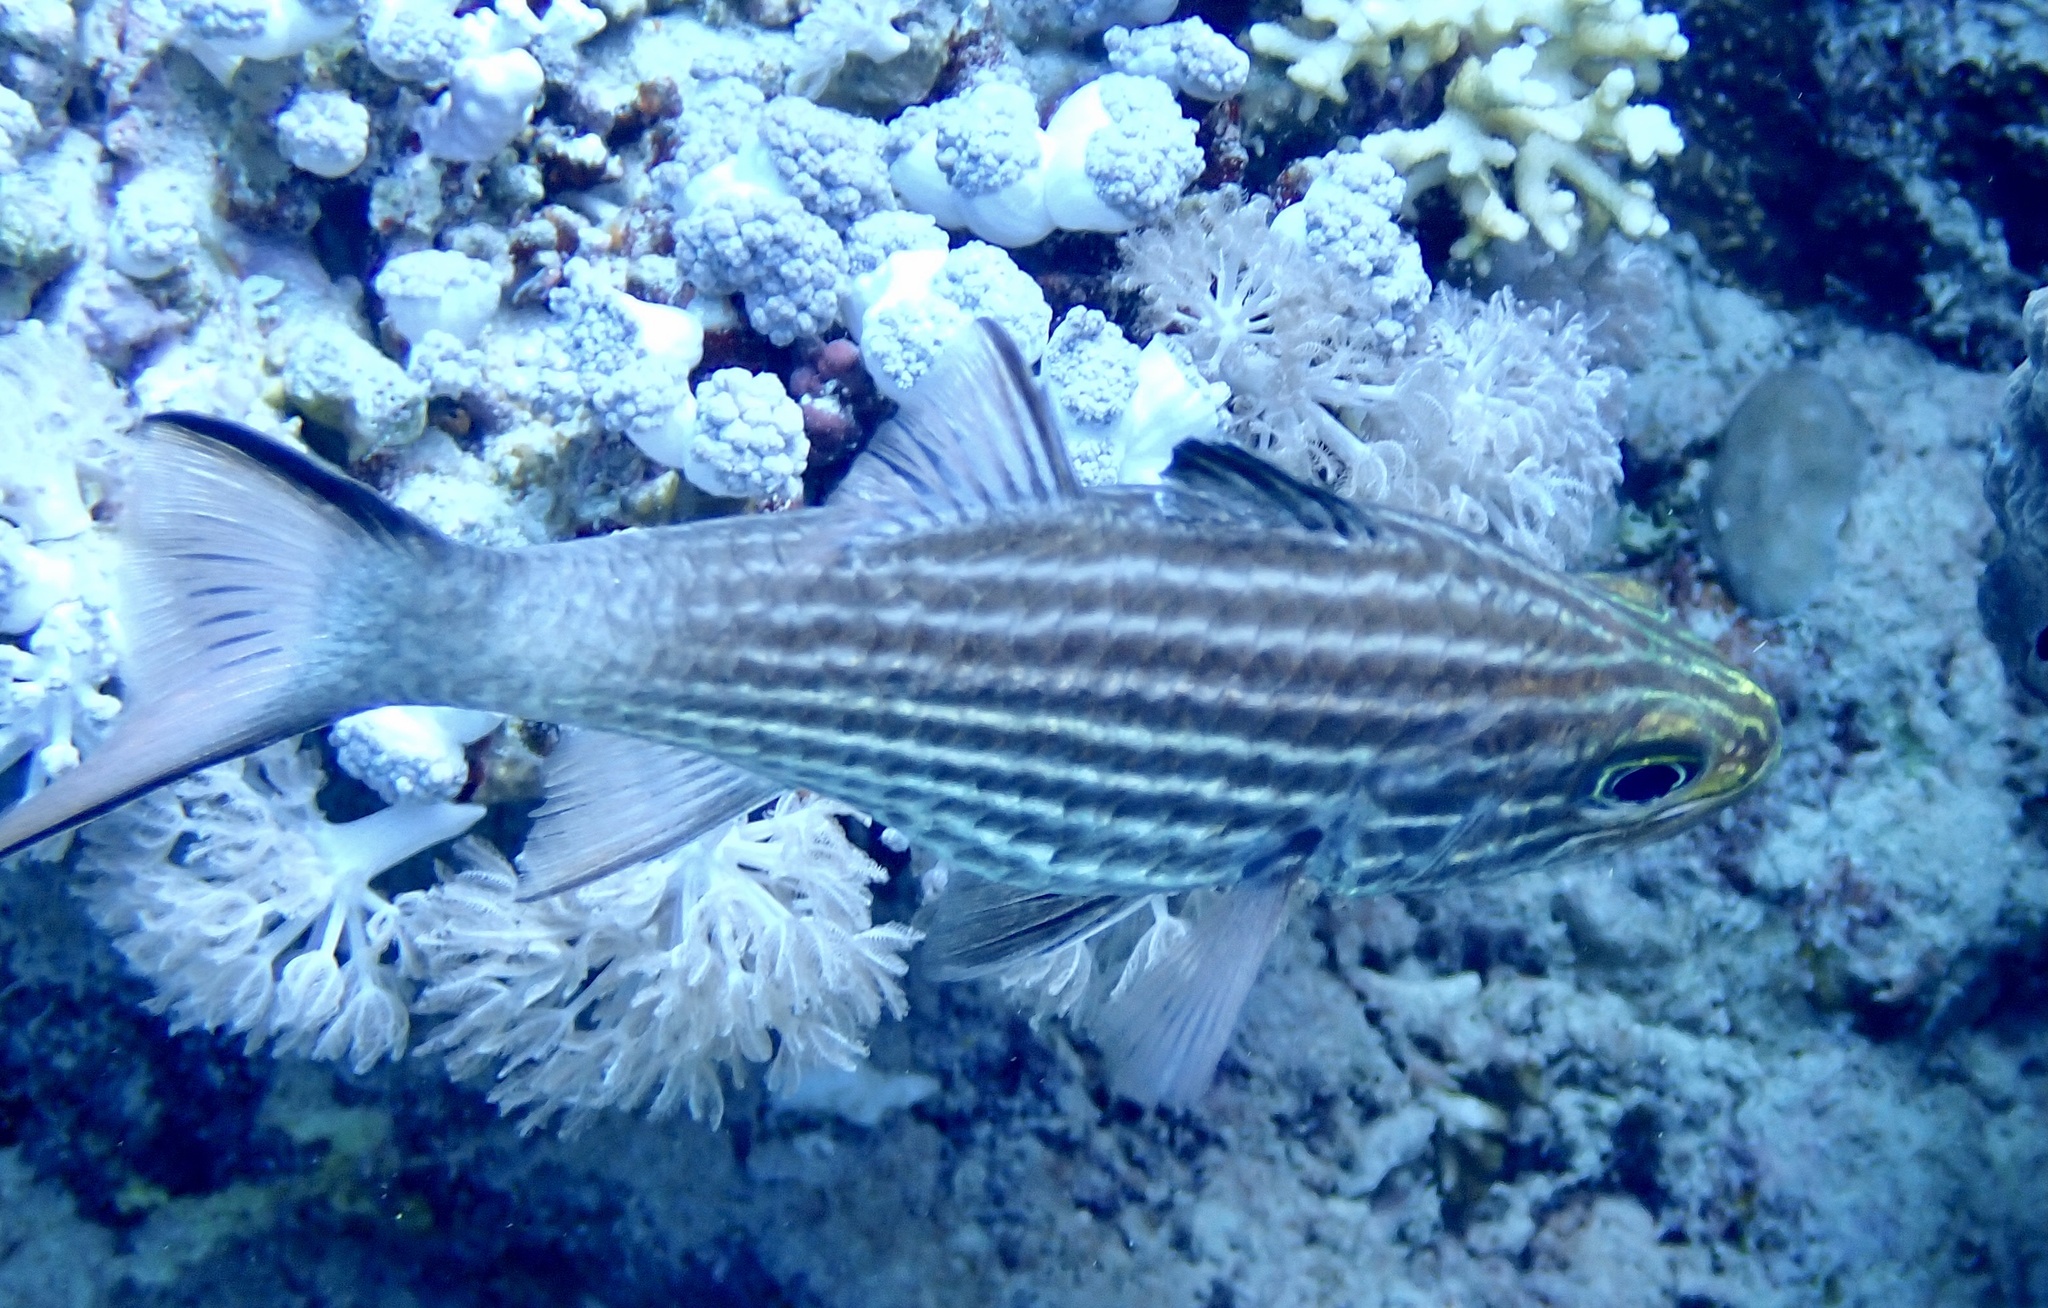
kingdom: Animalia
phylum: Chordata
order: Perciformes
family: Apogonidae
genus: Cheilodipterus
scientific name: Cheilodipterus macrodon
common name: Eight-lined cardinalfish
